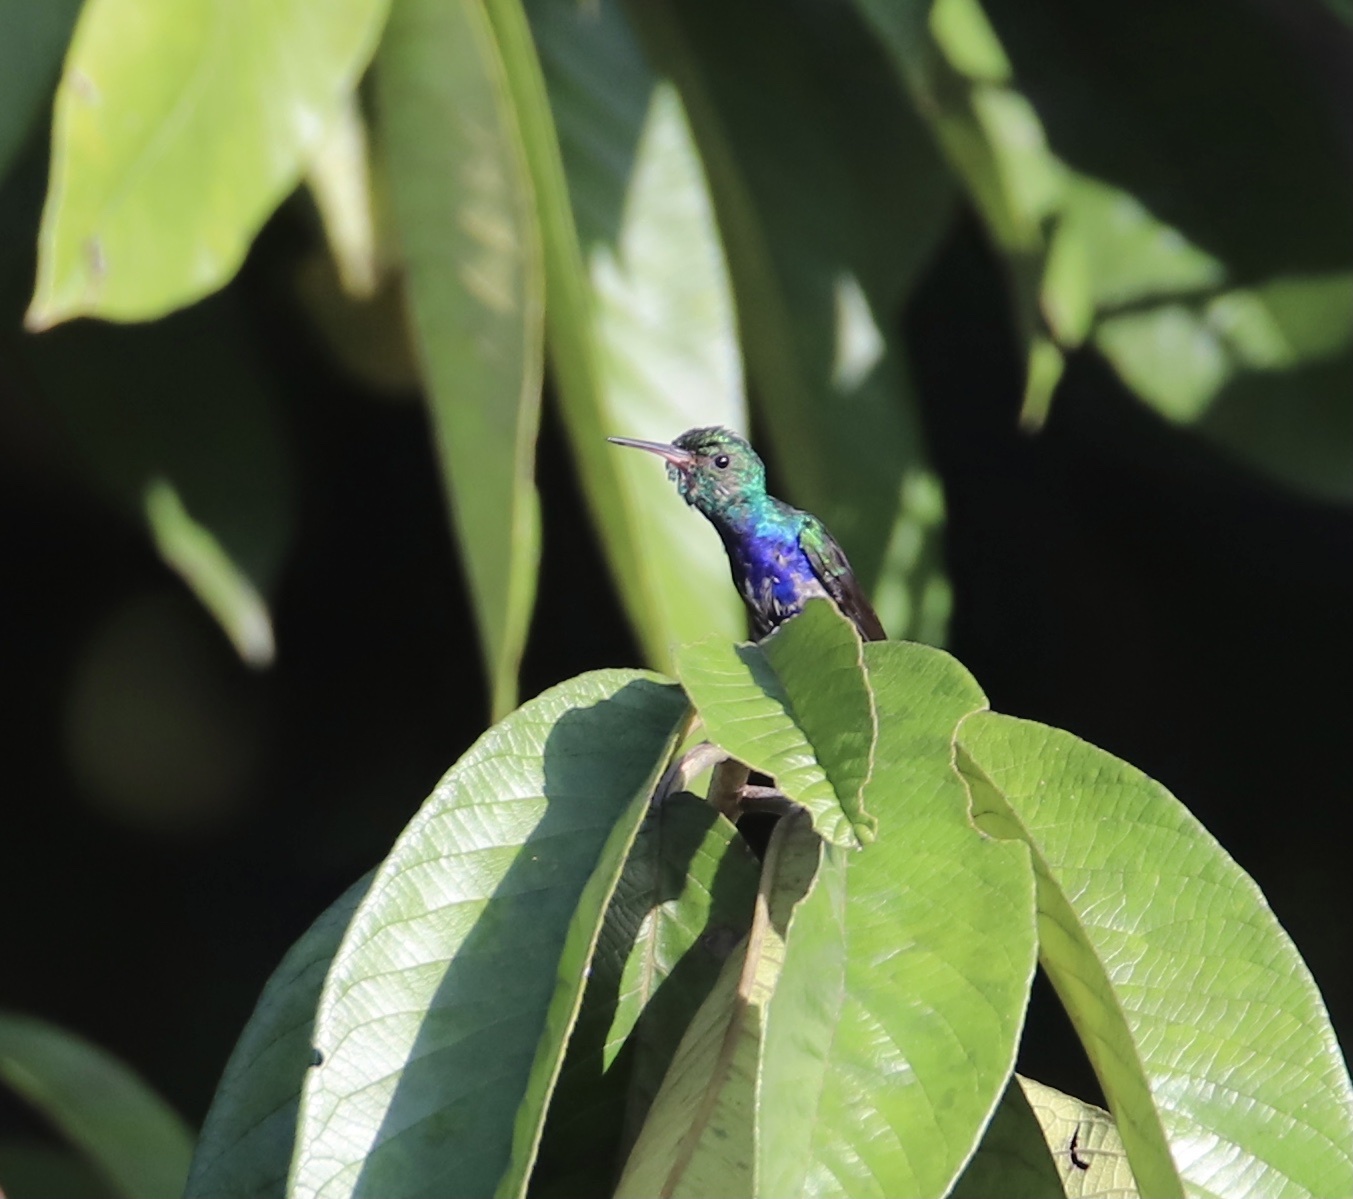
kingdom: Animalia
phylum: Chordata
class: Aves
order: Apodiformes
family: Trochilidae
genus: Chlorestes
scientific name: Chlorestes julie
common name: Violet-bellied hummingbird
